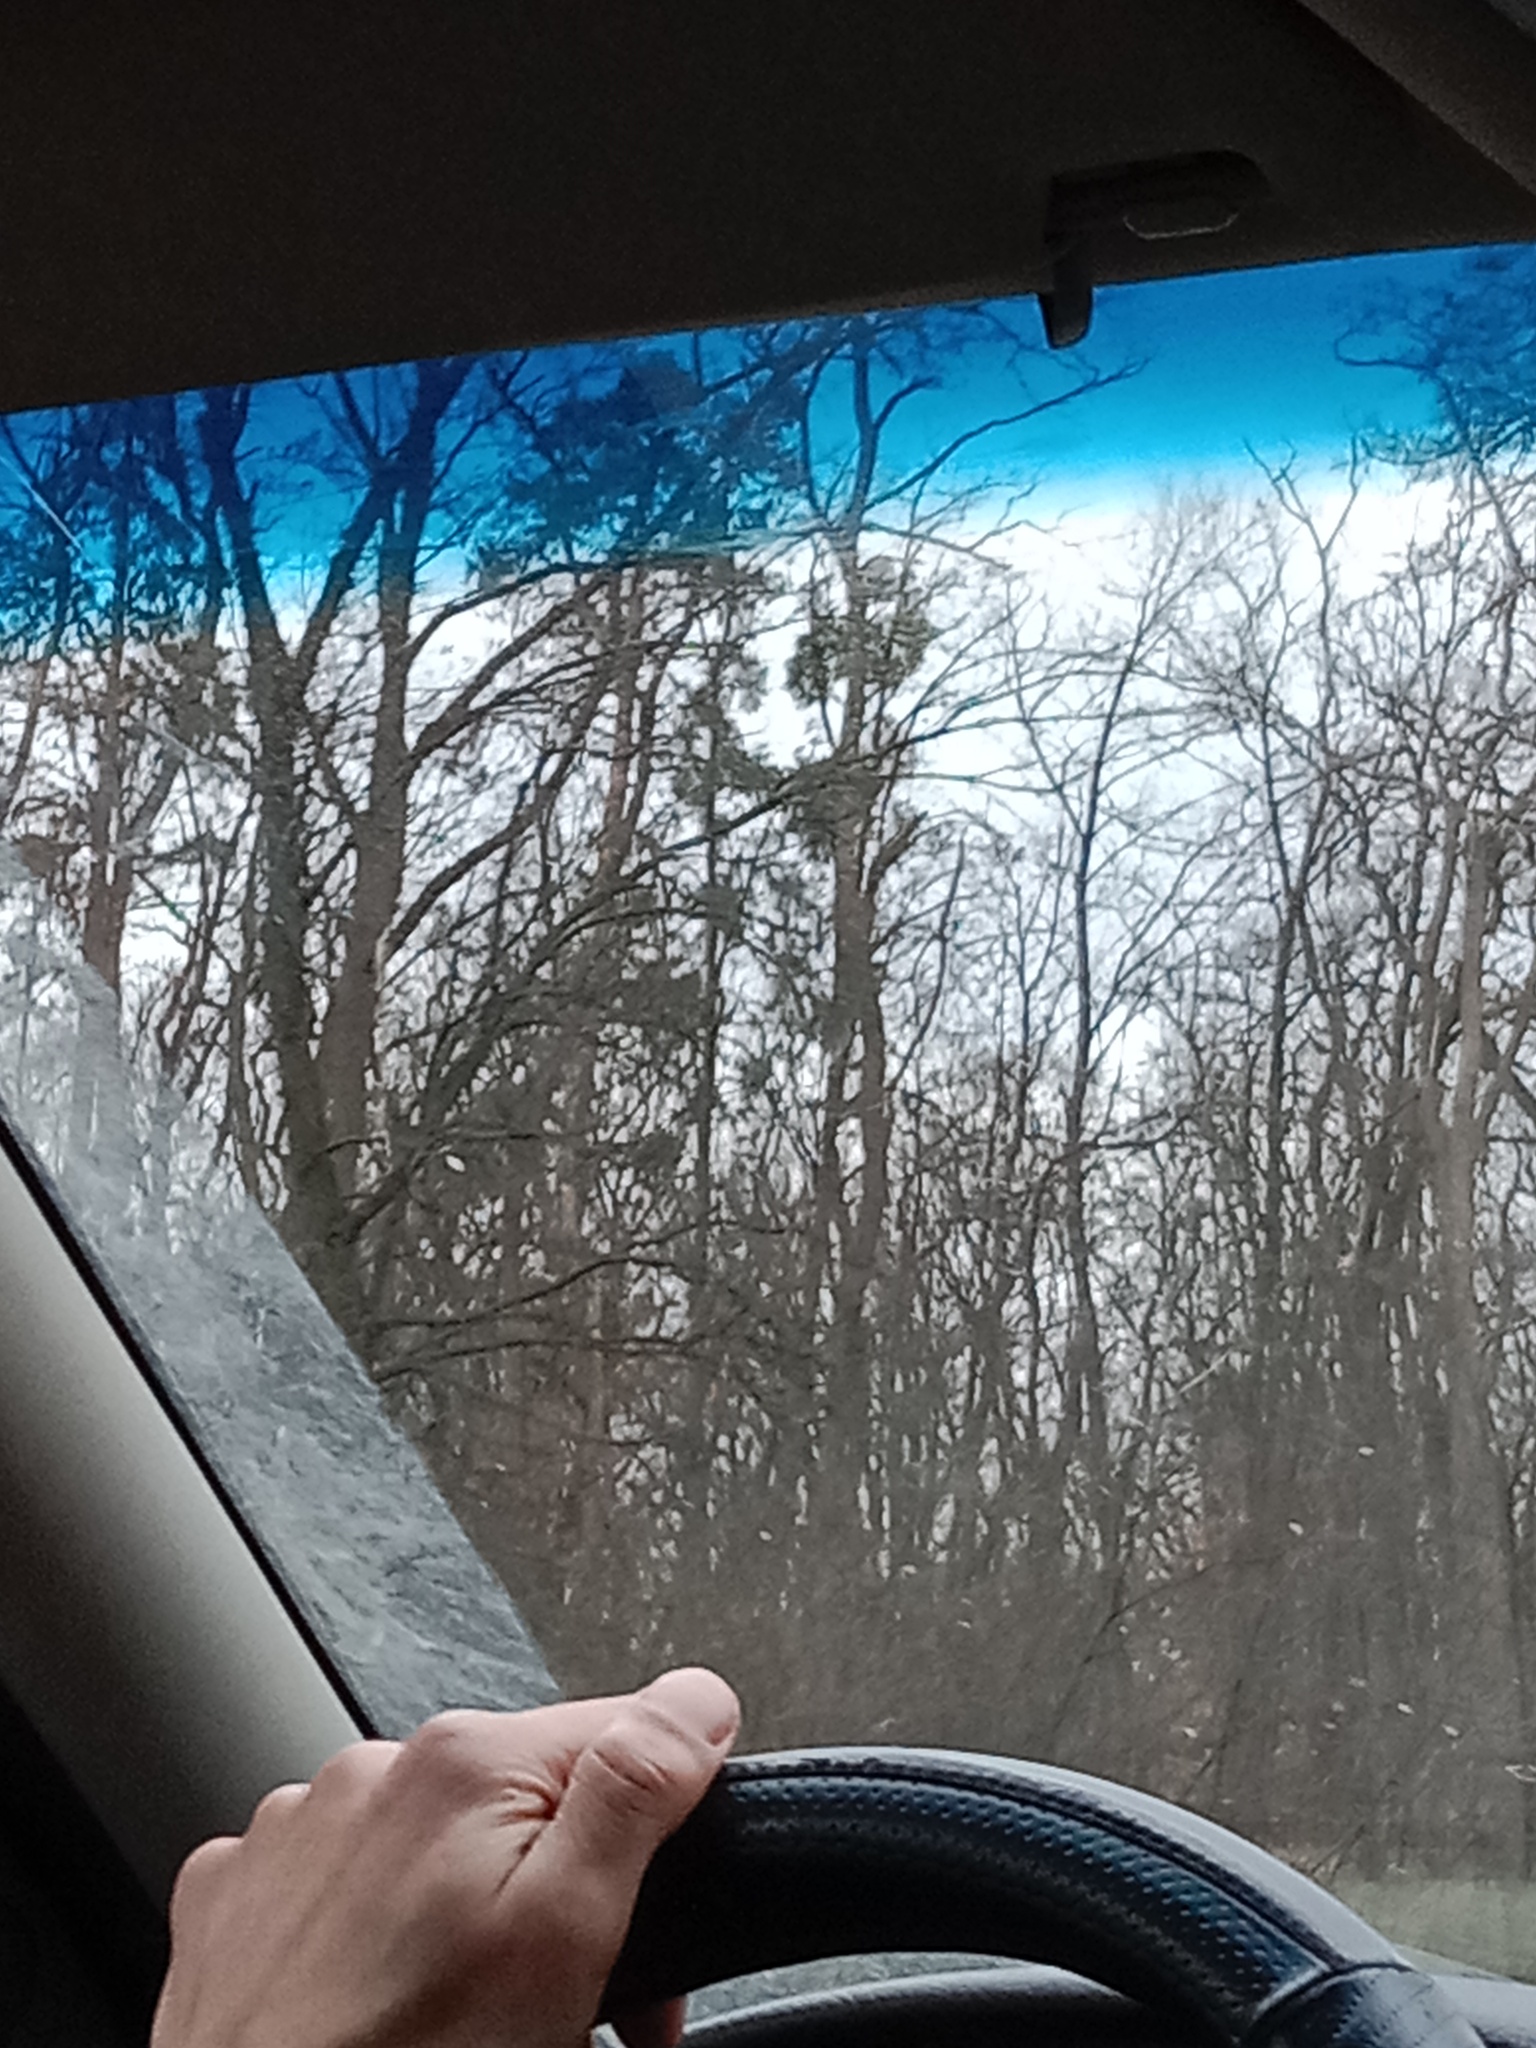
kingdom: Plantae
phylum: Tracheophyta
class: Magnoliopsida
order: Santalales
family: Viscaceae
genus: Viscum
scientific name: Viscum album
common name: Mistletoe
